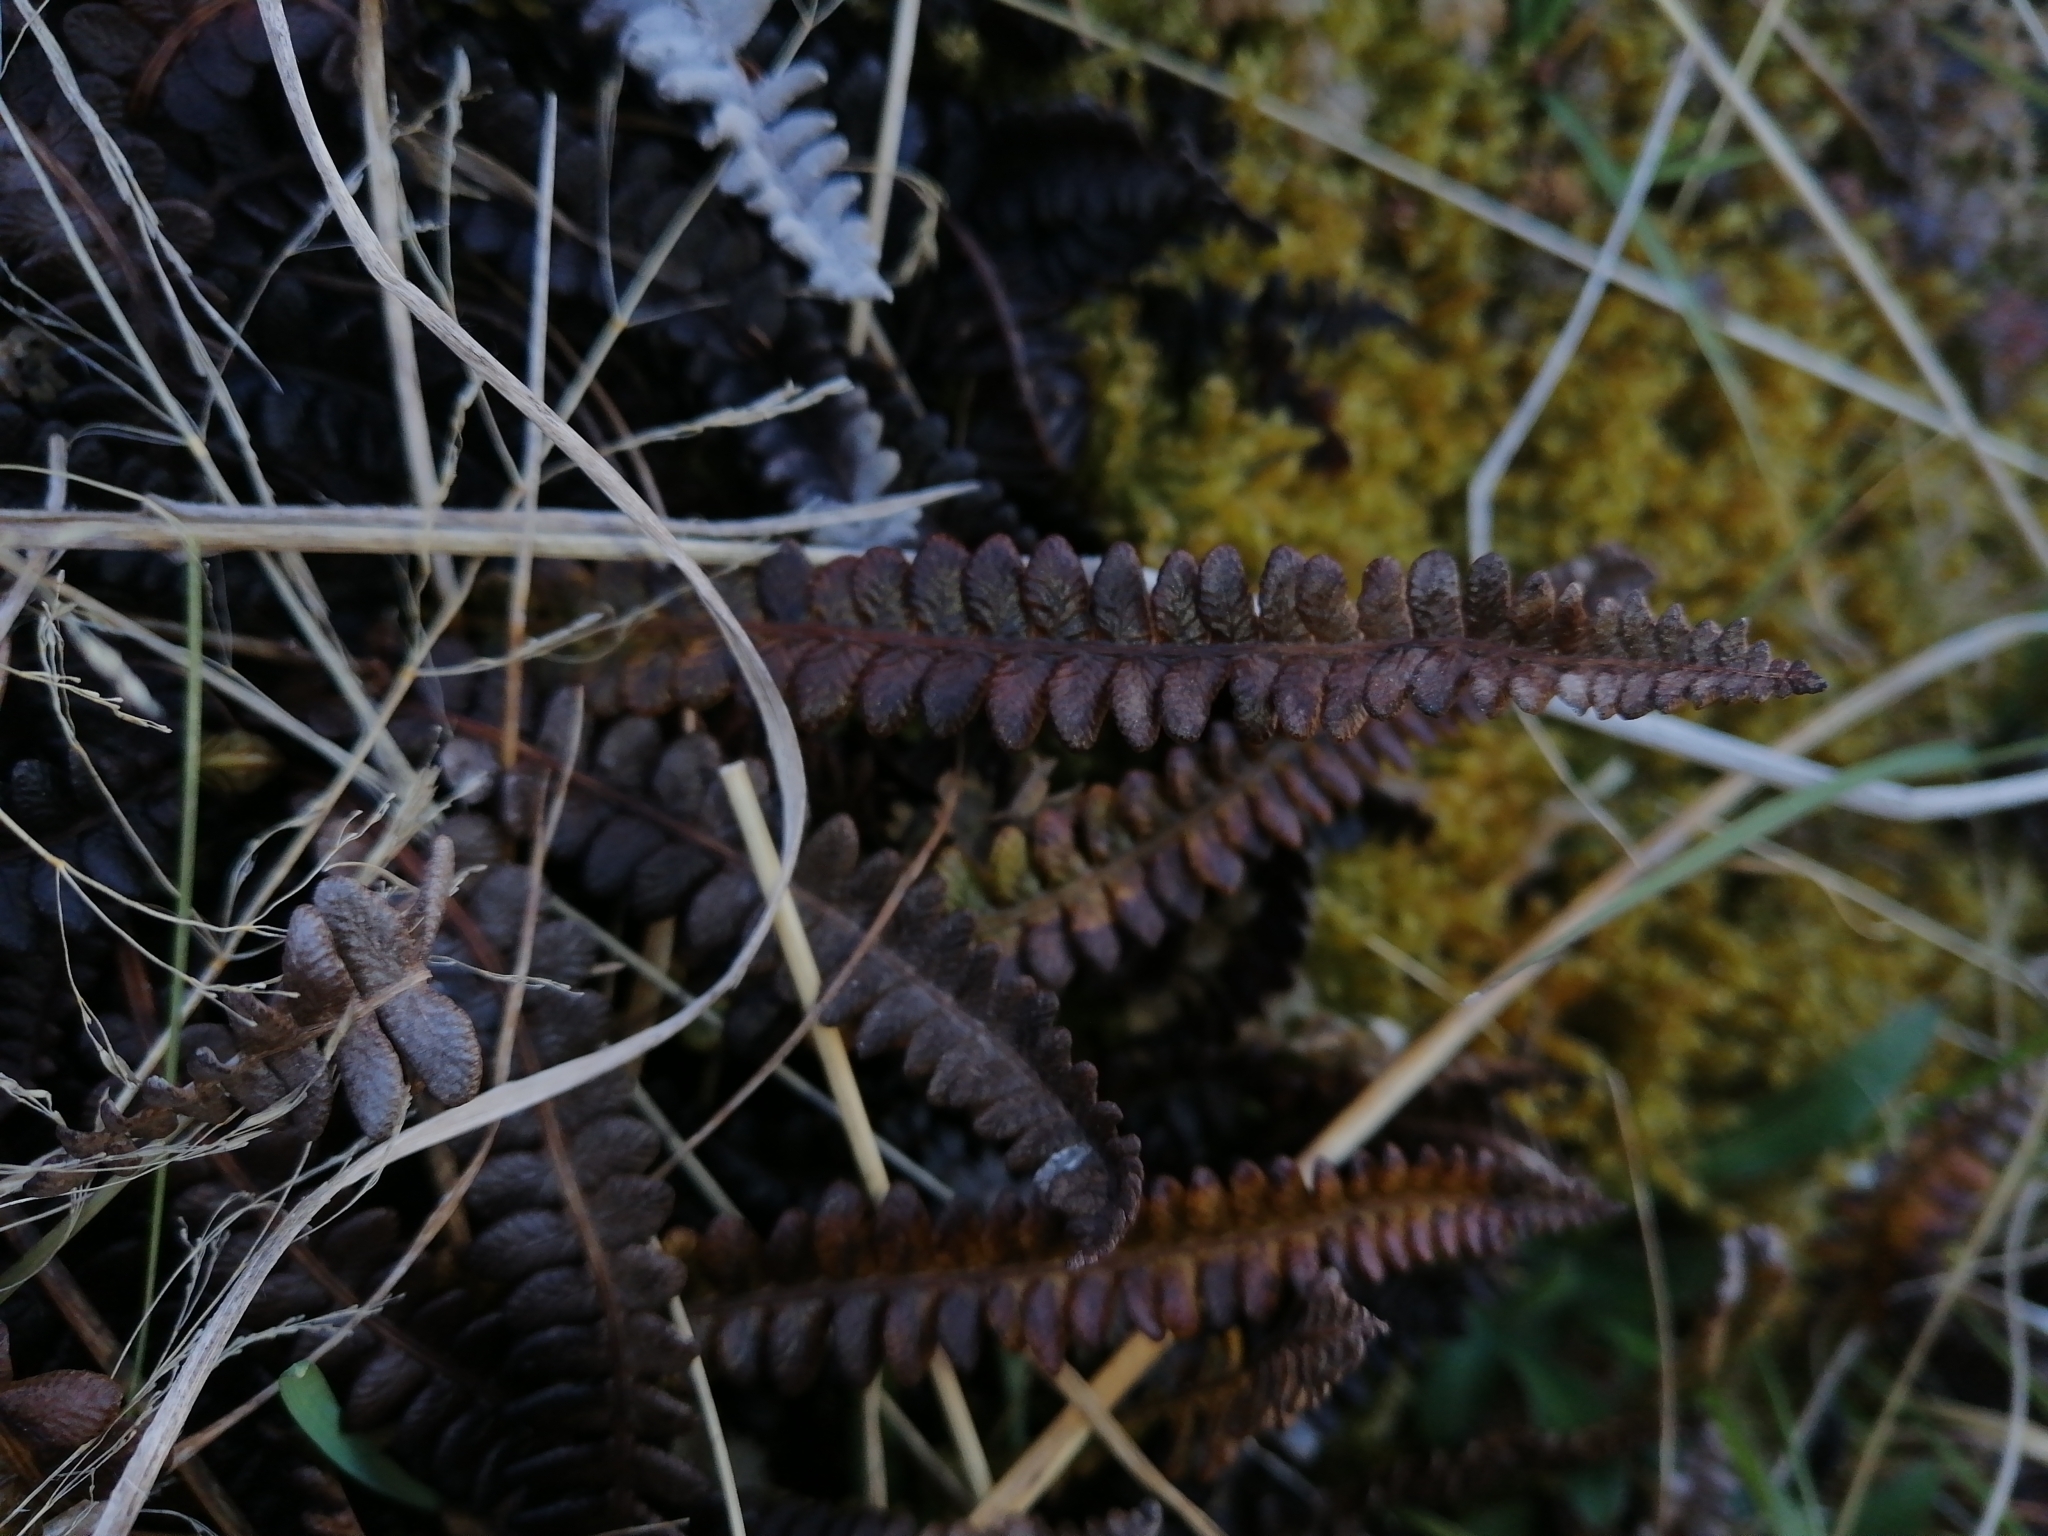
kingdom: Plantae
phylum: Tracheophyta
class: Polypodiopsida
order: Polypodiales
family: Blechnaceae
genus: Austroblechnum
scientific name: Austroblechnum penna-marina
